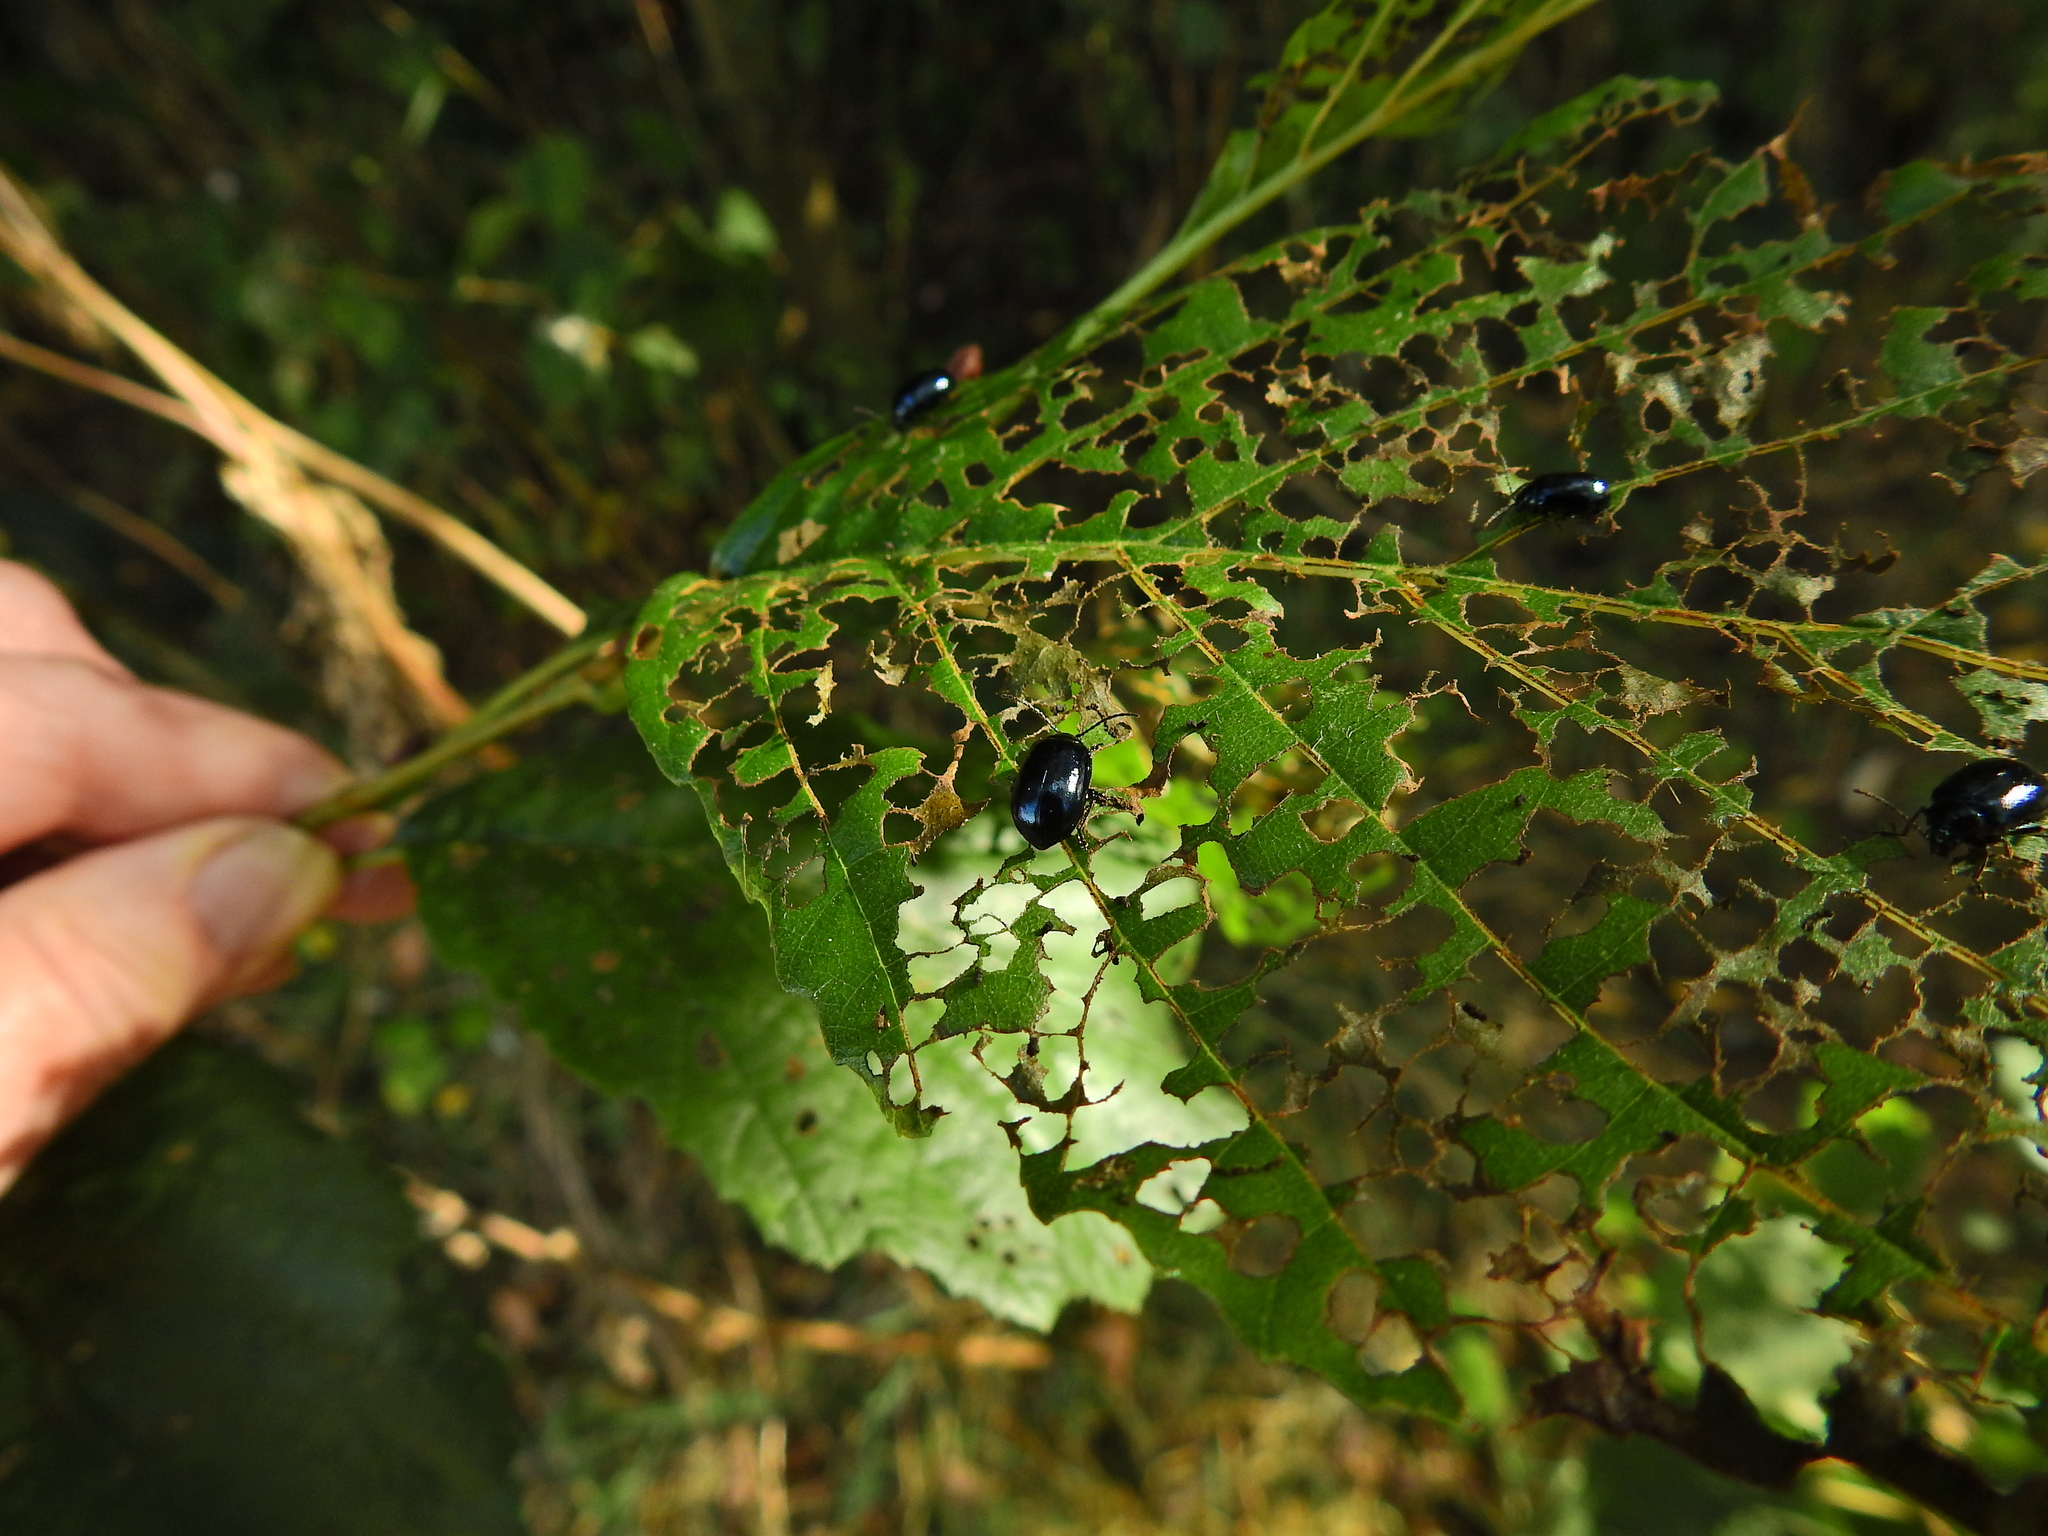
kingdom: Animalia
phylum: Arthropoda
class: Insecta
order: Coleoptera
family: Chrysomelidae
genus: Agelastica
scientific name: Agelastica alni
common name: Alder leaf beetle
